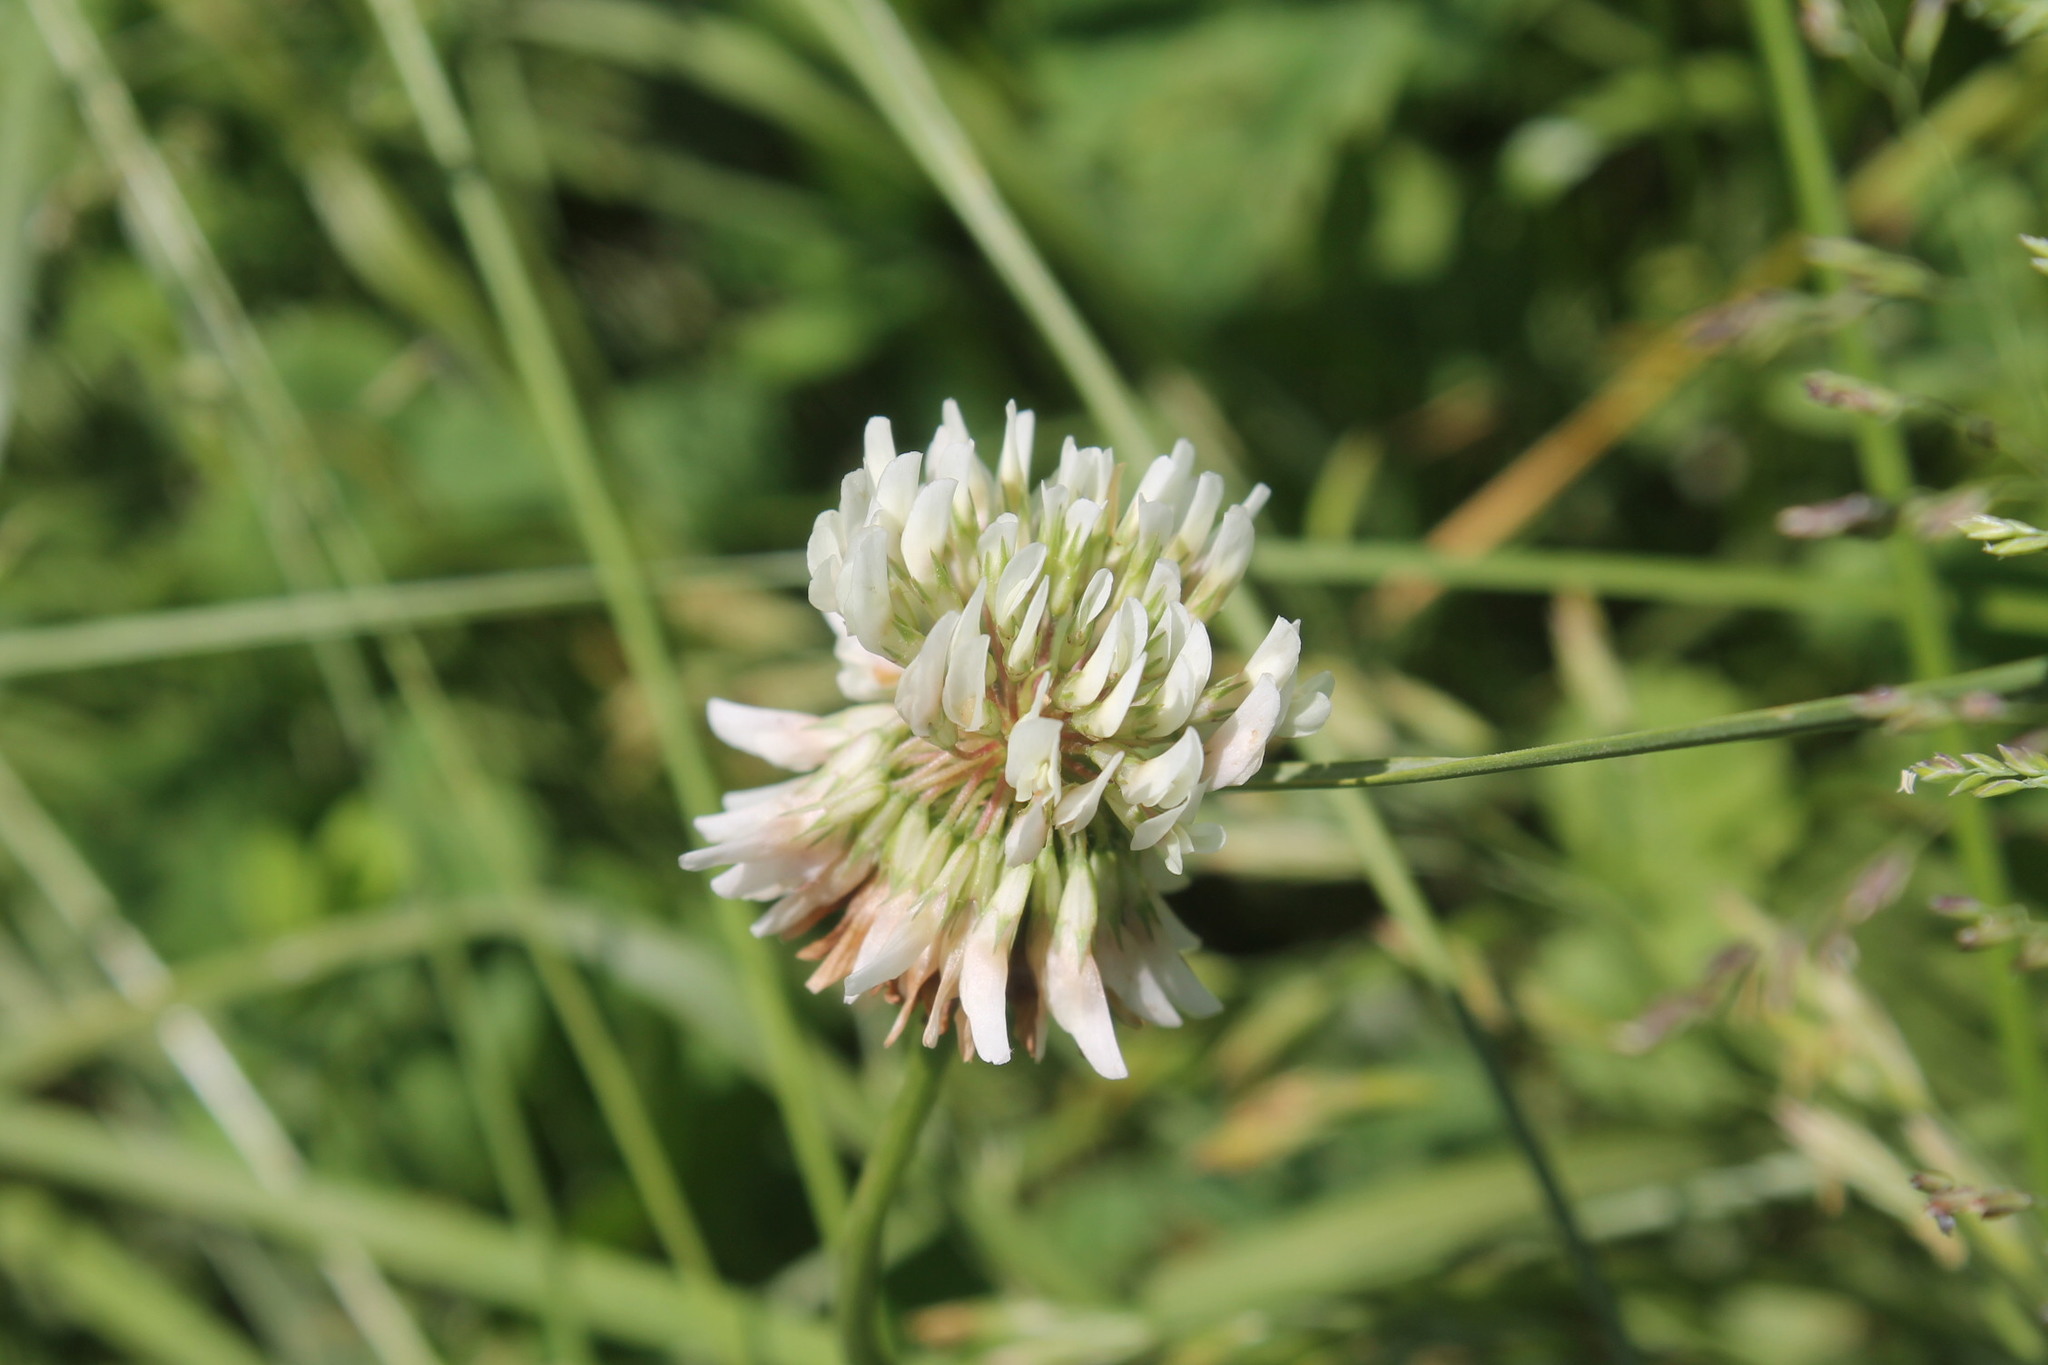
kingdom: Plantae
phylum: Tracheophyta
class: Magnoliopsida
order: Fabales
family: Fabaceae
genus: Trifolium
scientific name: Trifolium repens
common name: White clover
